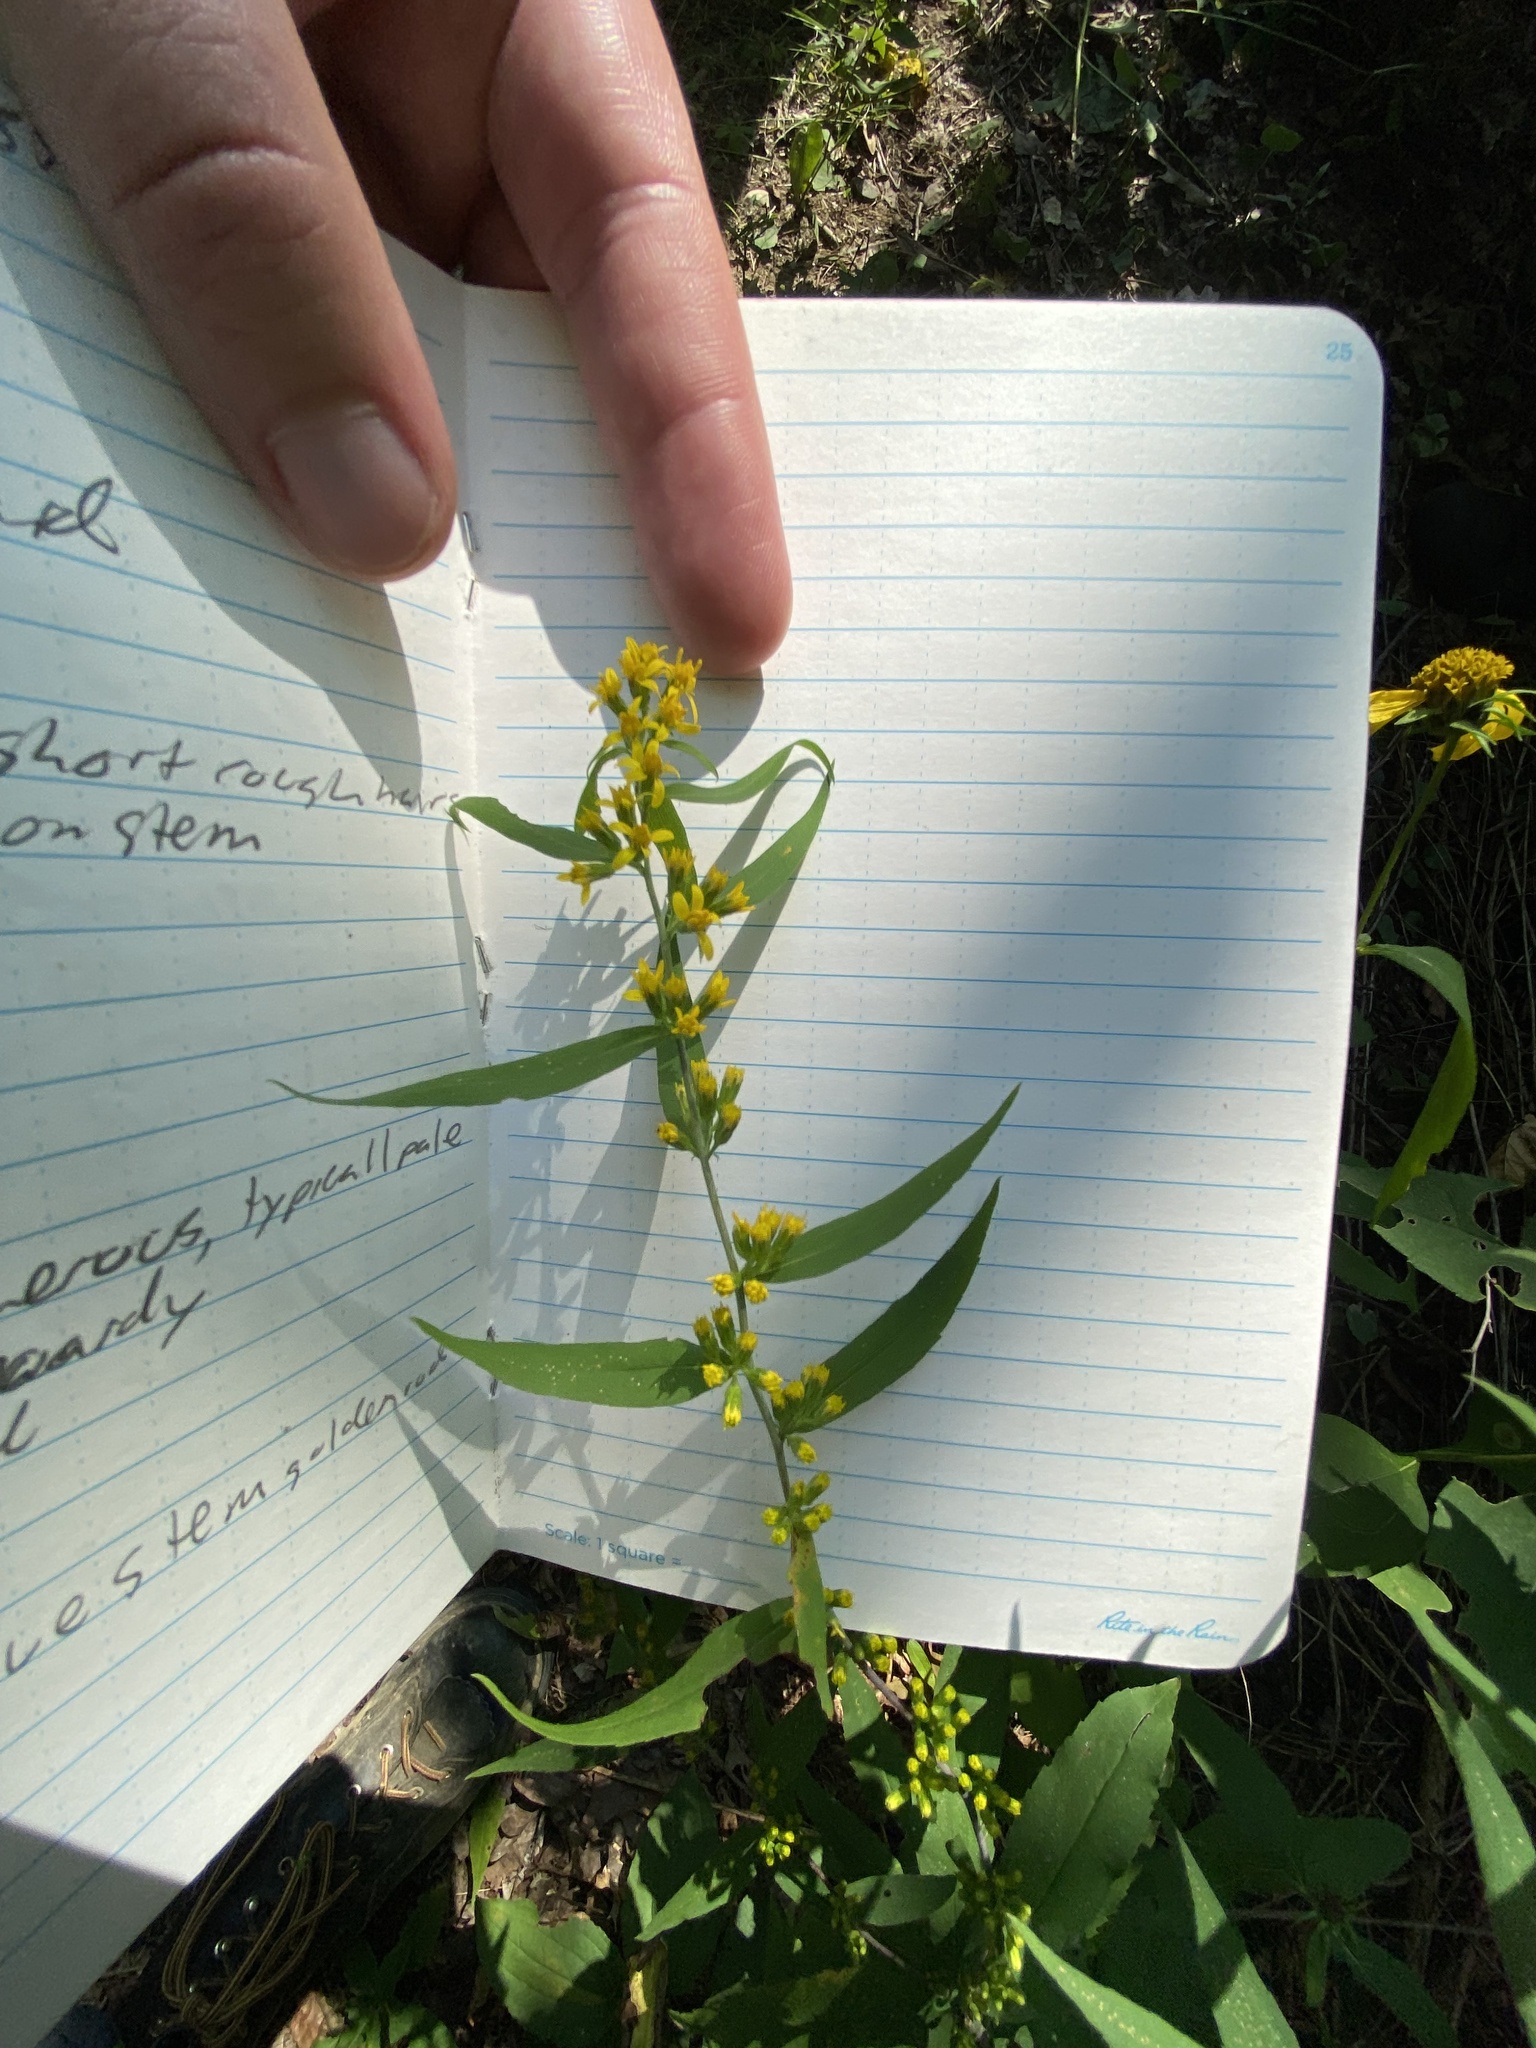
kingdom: Plantae
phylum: Tracheophyta
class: Magnoliopsida
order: Asterales
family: Asteraceae
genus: Solidago
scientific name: Solidago caesia
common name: Woodland goldenrod
